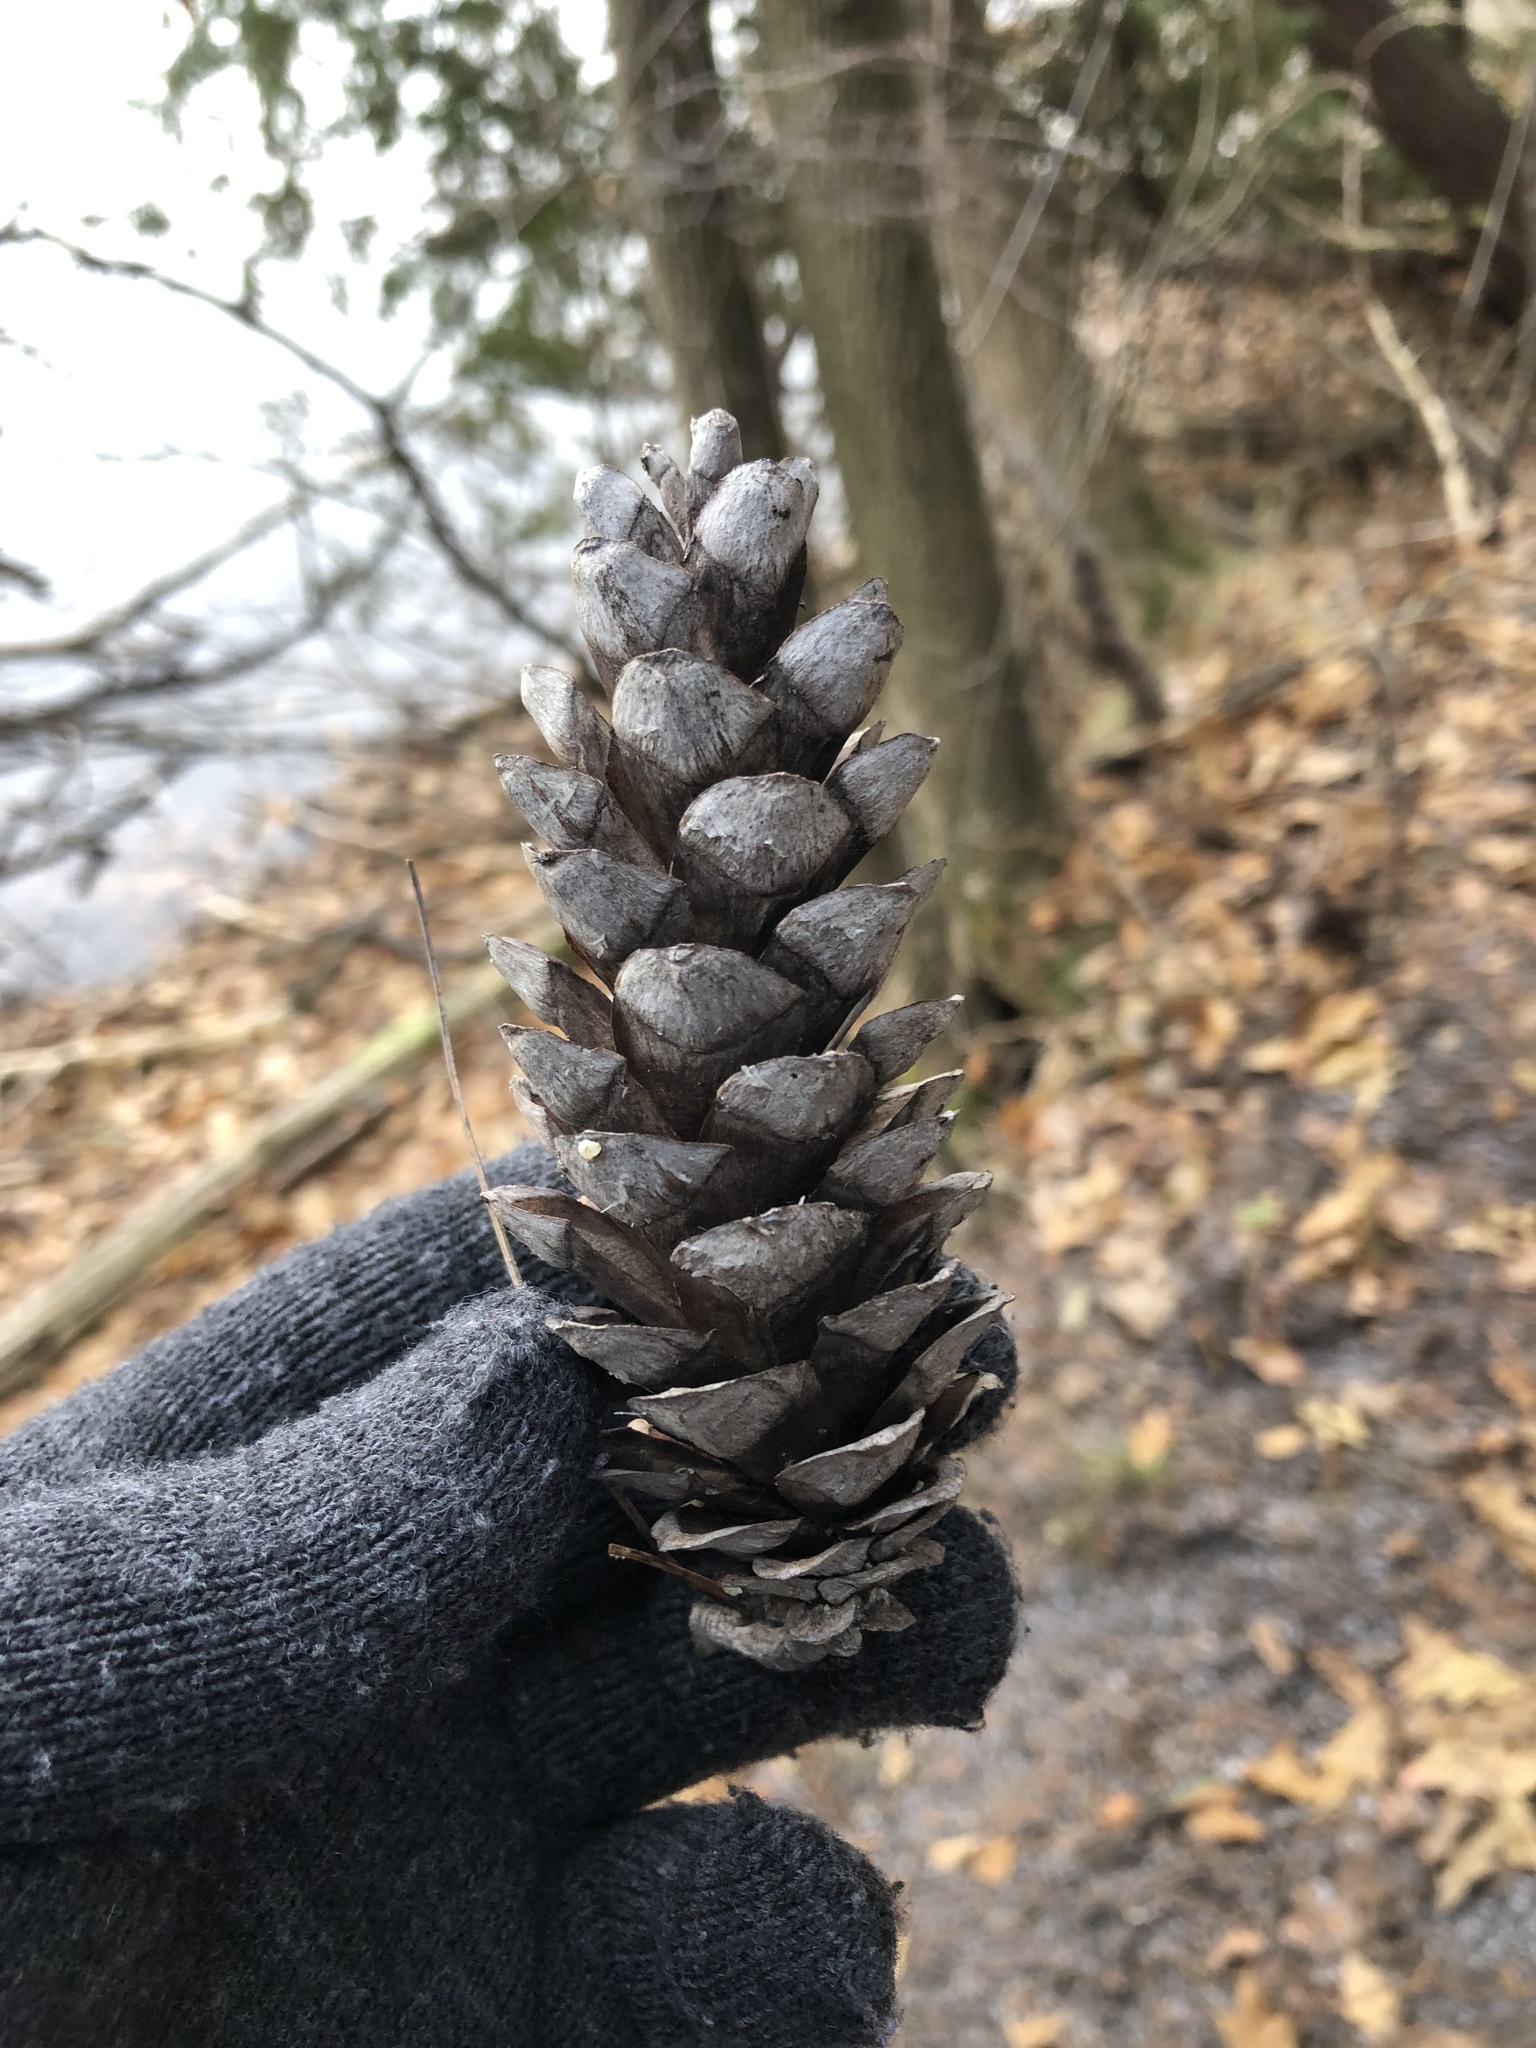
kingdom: Plantae
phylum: Tracheophyta
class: Pinopsida
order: Pinales
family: Pinaceae
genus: Pinus
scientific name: Pinus strobus
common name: Weymouth pine
